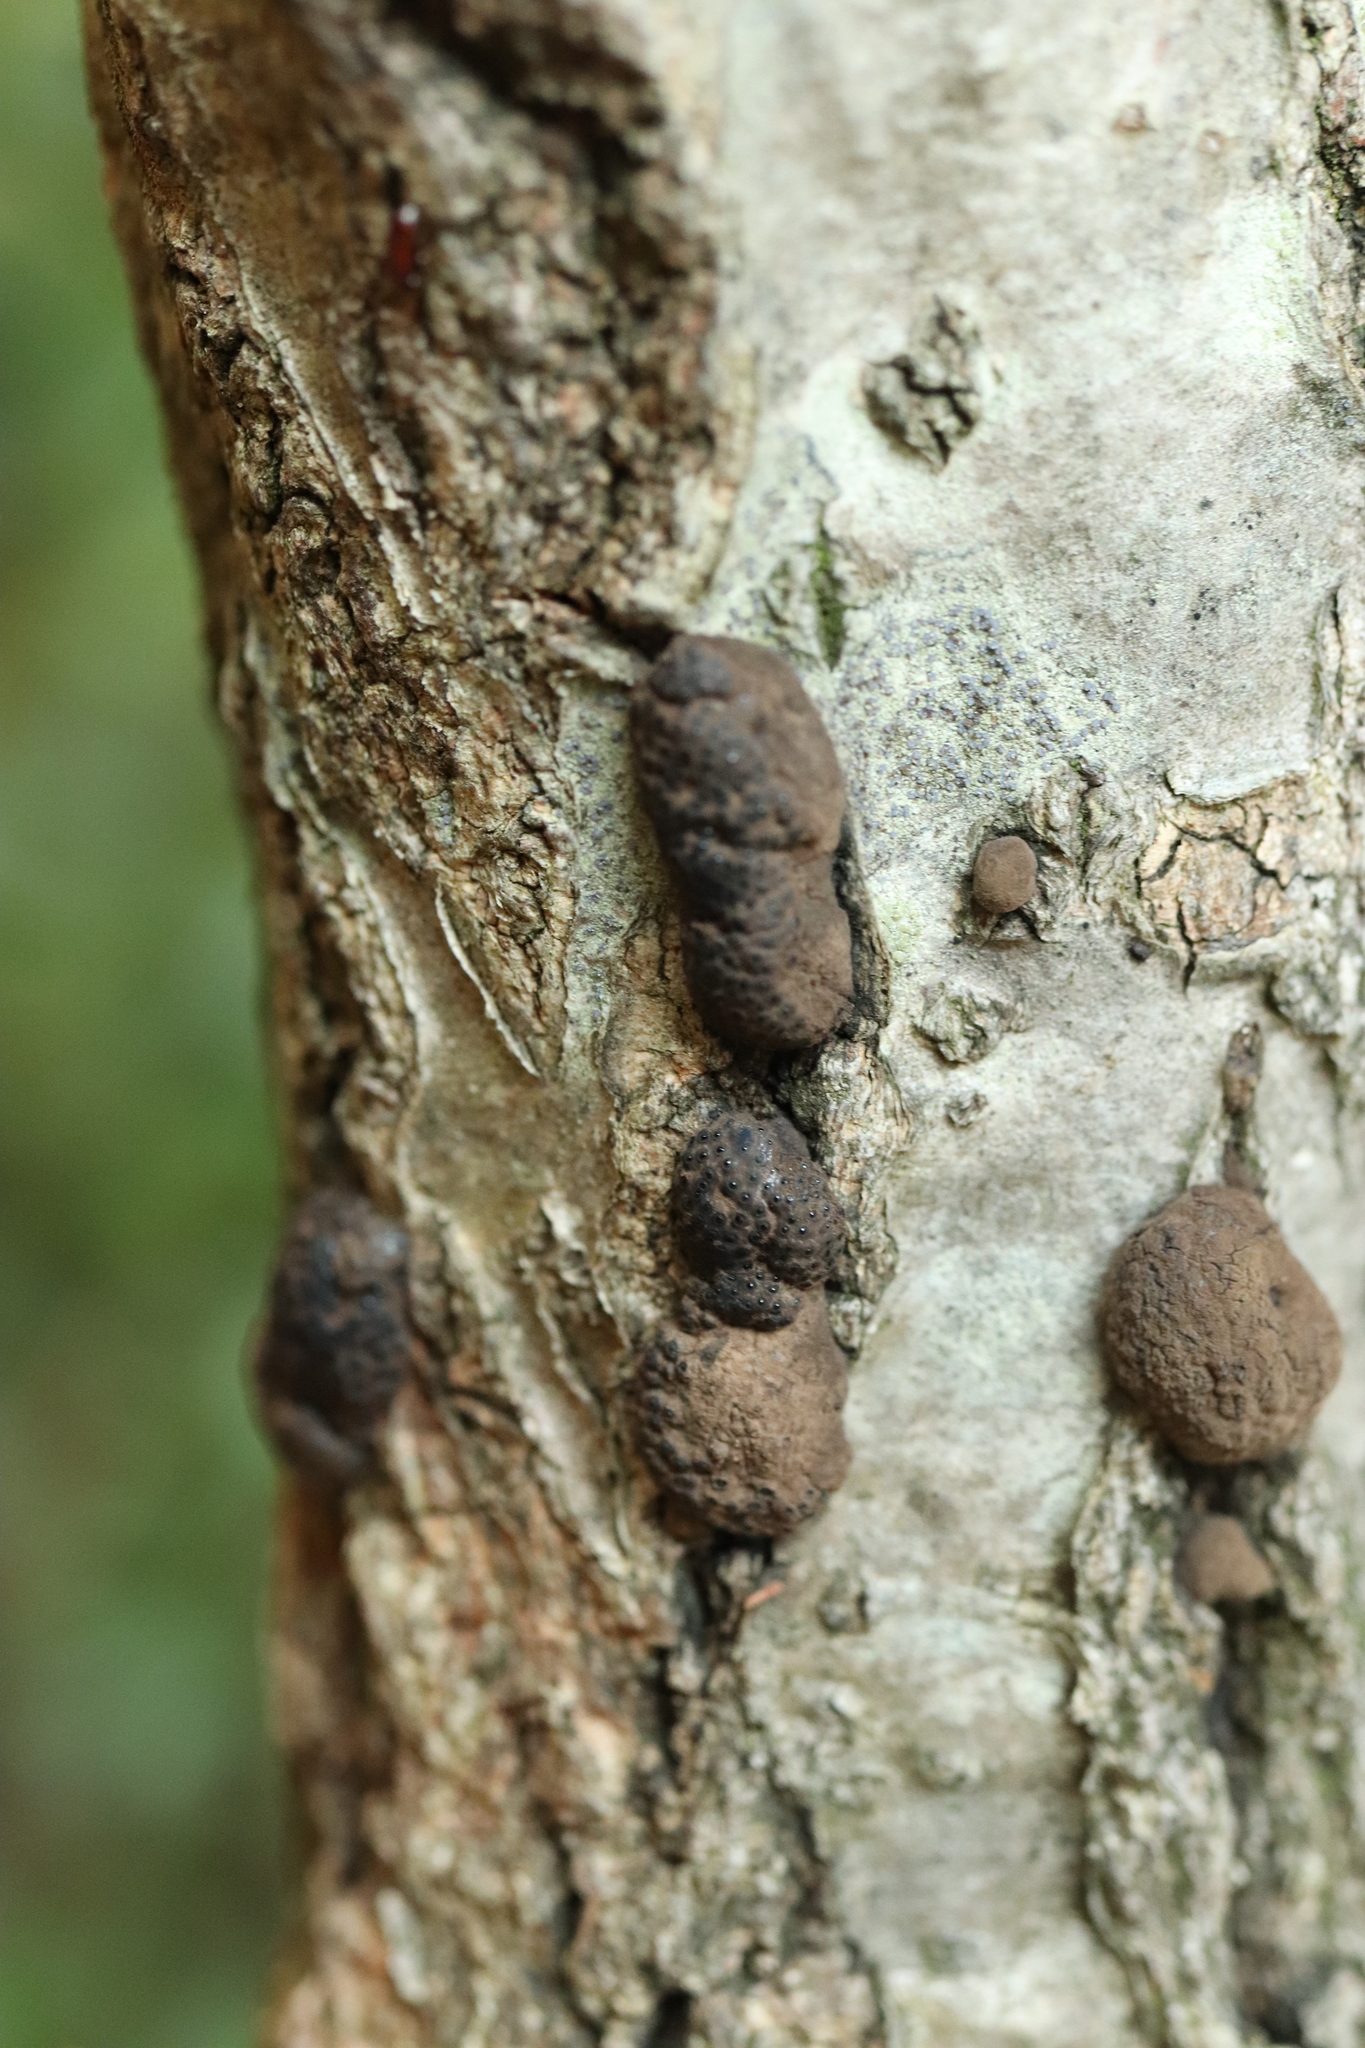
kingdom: Fungi
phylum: Ascomycota
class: Sordariomycetes
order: Xylariales
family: Hypoxylaceae
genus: Annulohypoxylon
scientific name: Annulohypoxylon truncatum
